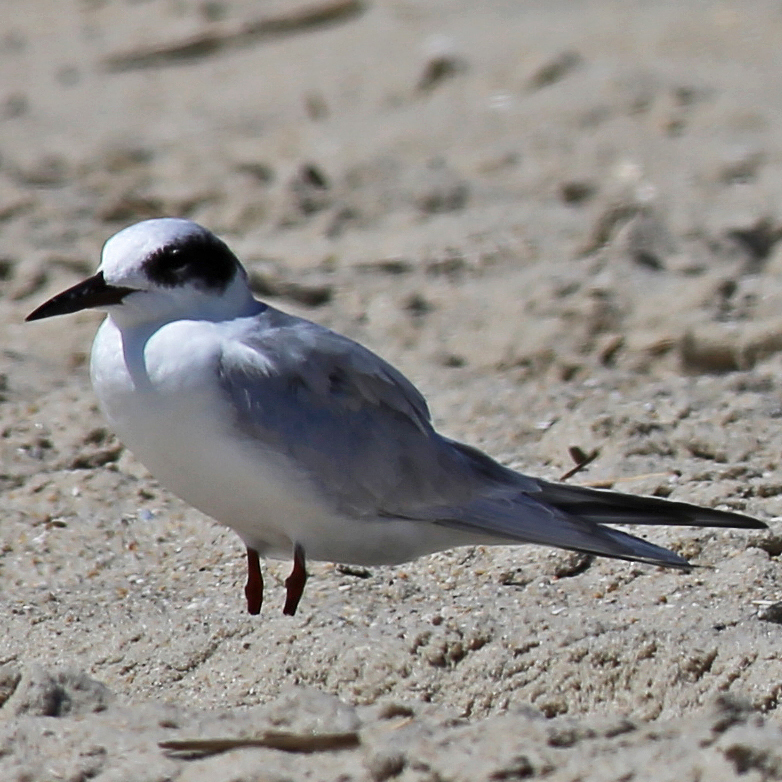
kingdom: Animalia
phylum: Chordata
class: Aves
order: Charadriiformes
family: Laridae
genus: Sterna
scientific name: Sterna forsteri
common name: Forster's tern
